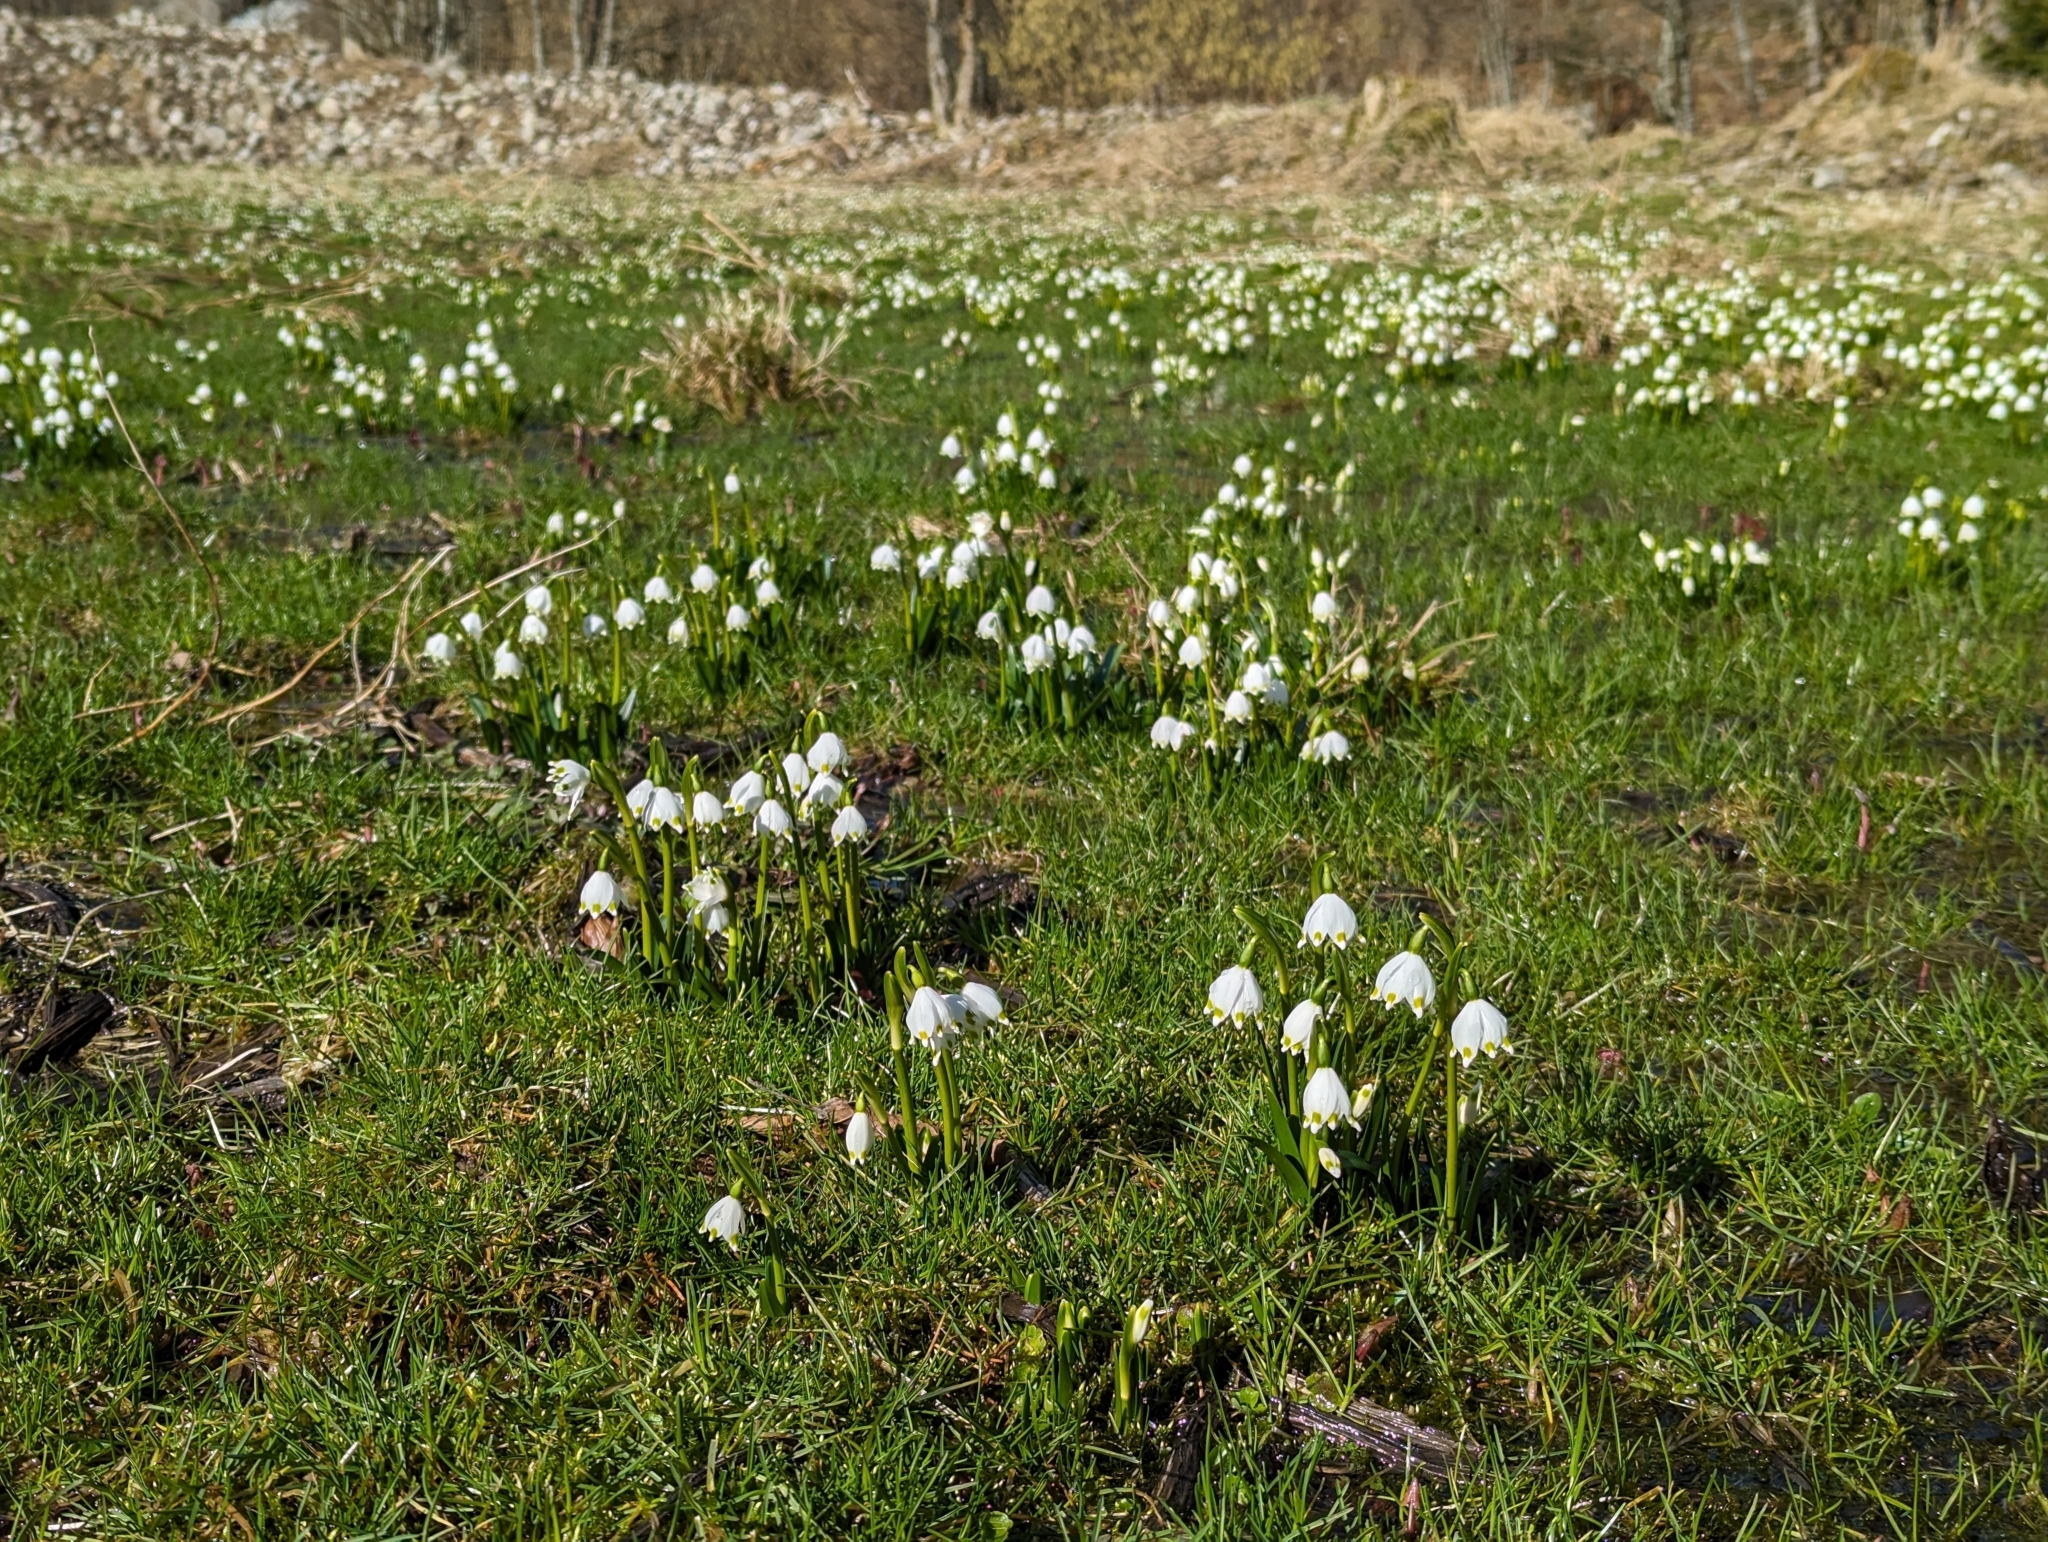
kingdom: Plantae
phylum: Tracheophyta
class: Liliopsida
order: Asparagales
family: Amaryllidaceae
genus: Leucojum
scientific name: Leucojum vernum
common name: Spring snowflake
